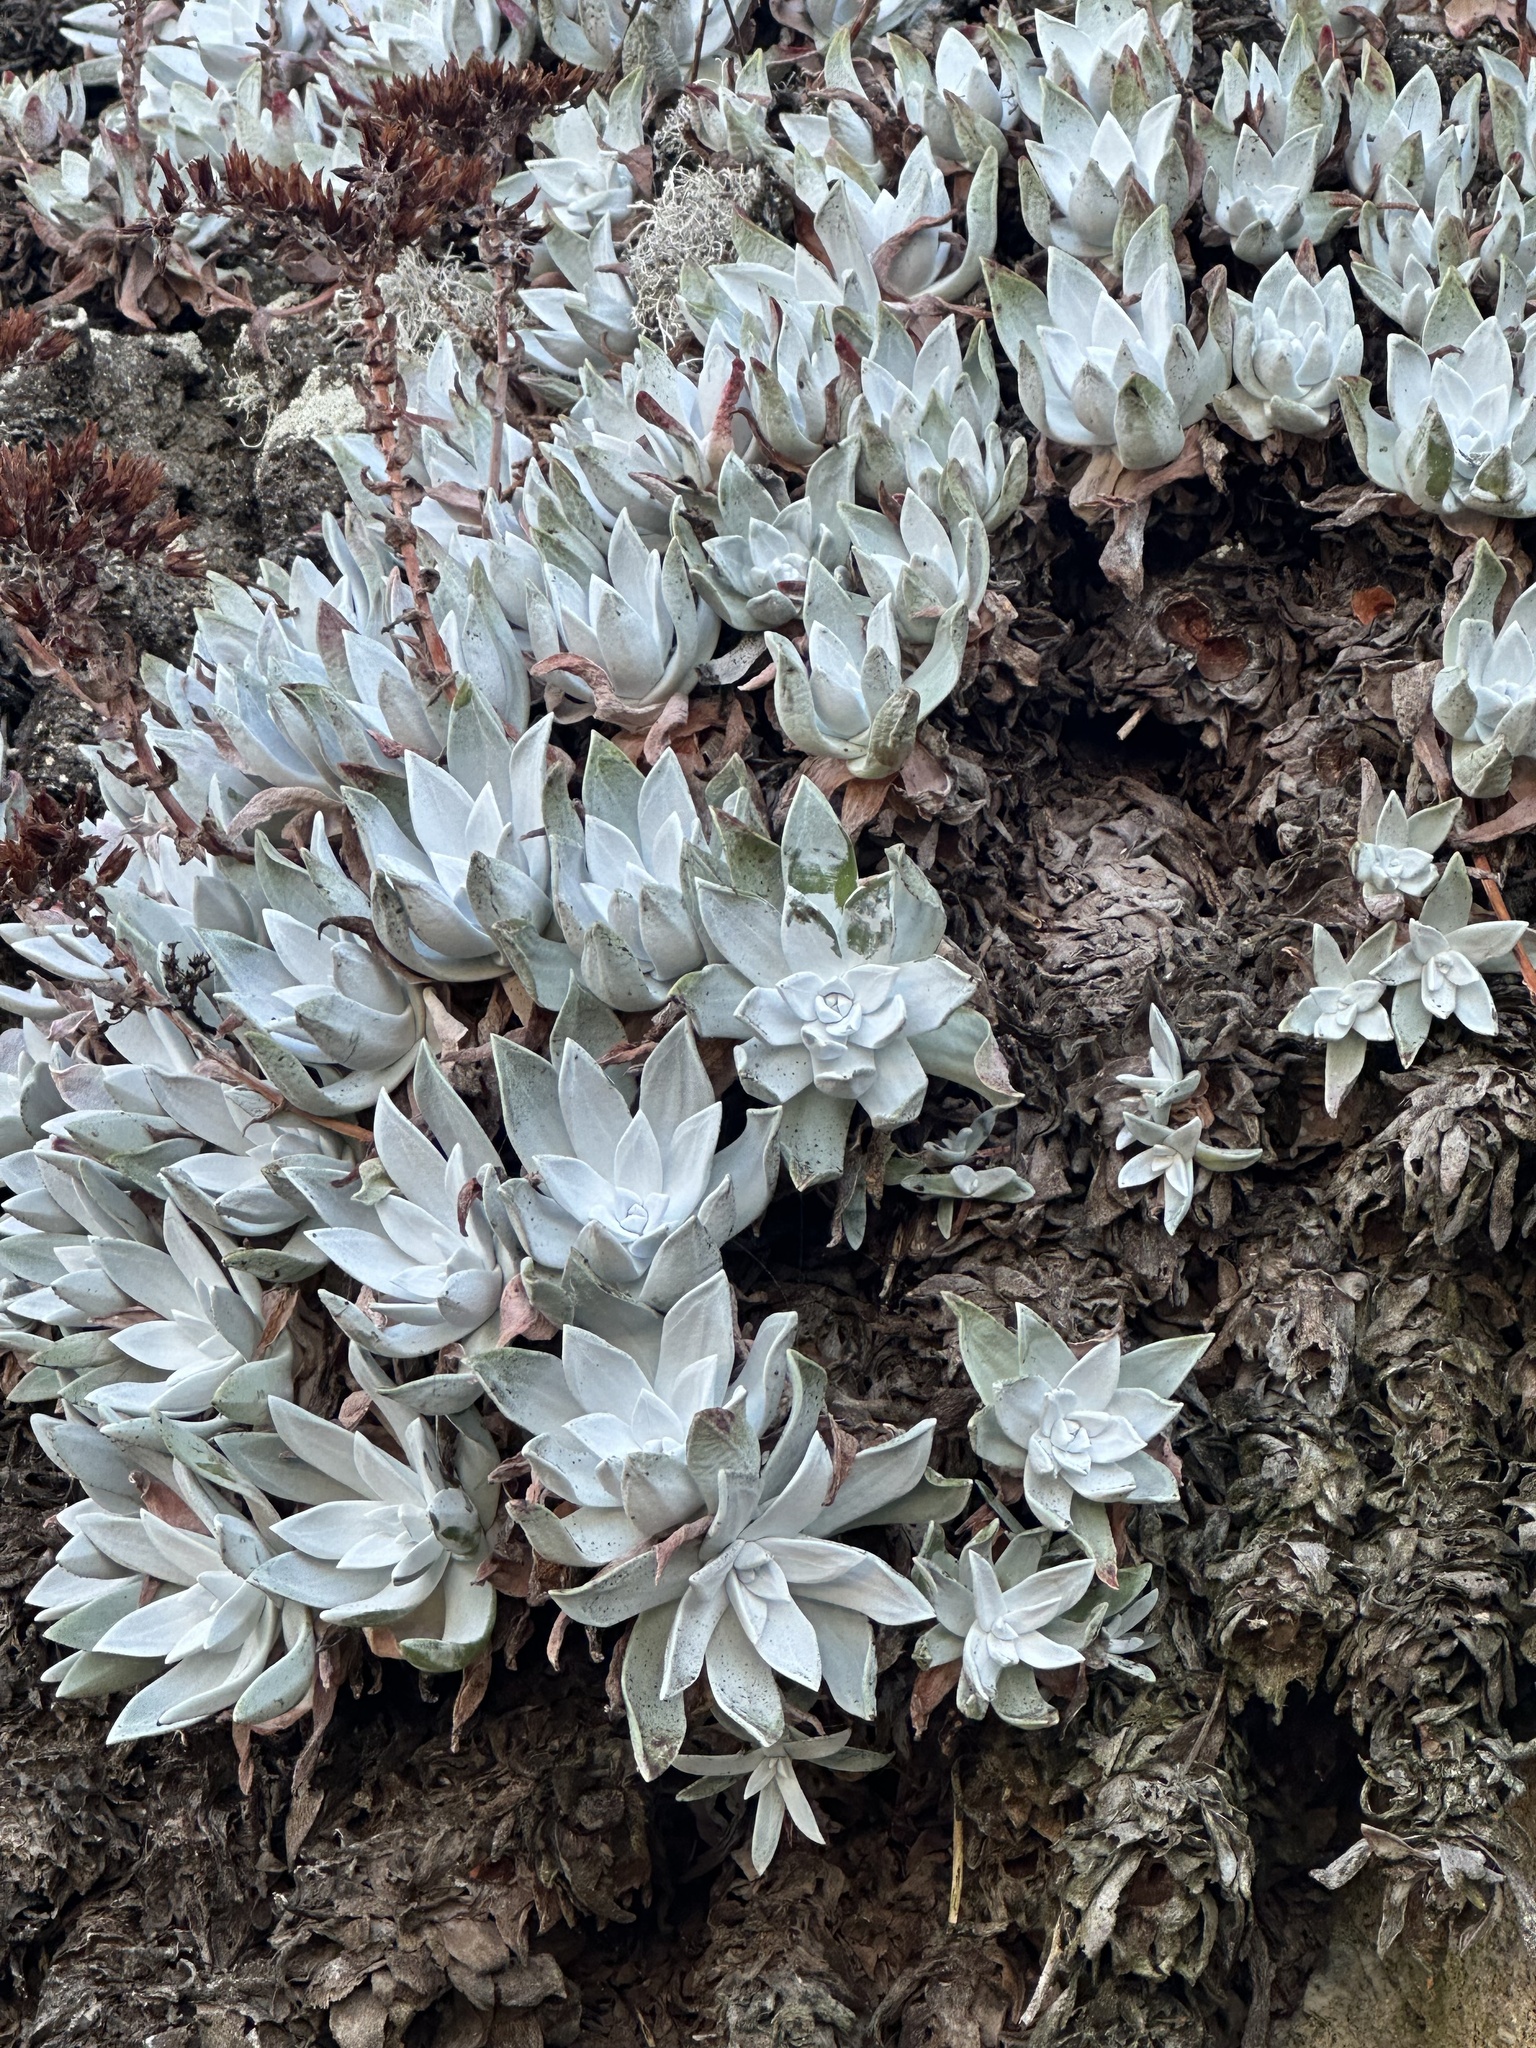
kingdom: Plantae
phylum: Tracheophyta
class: Magnoliopsida
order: Saxifragales
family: Crassulaceae
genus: Dudleya
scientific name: Dudleya farinosa
